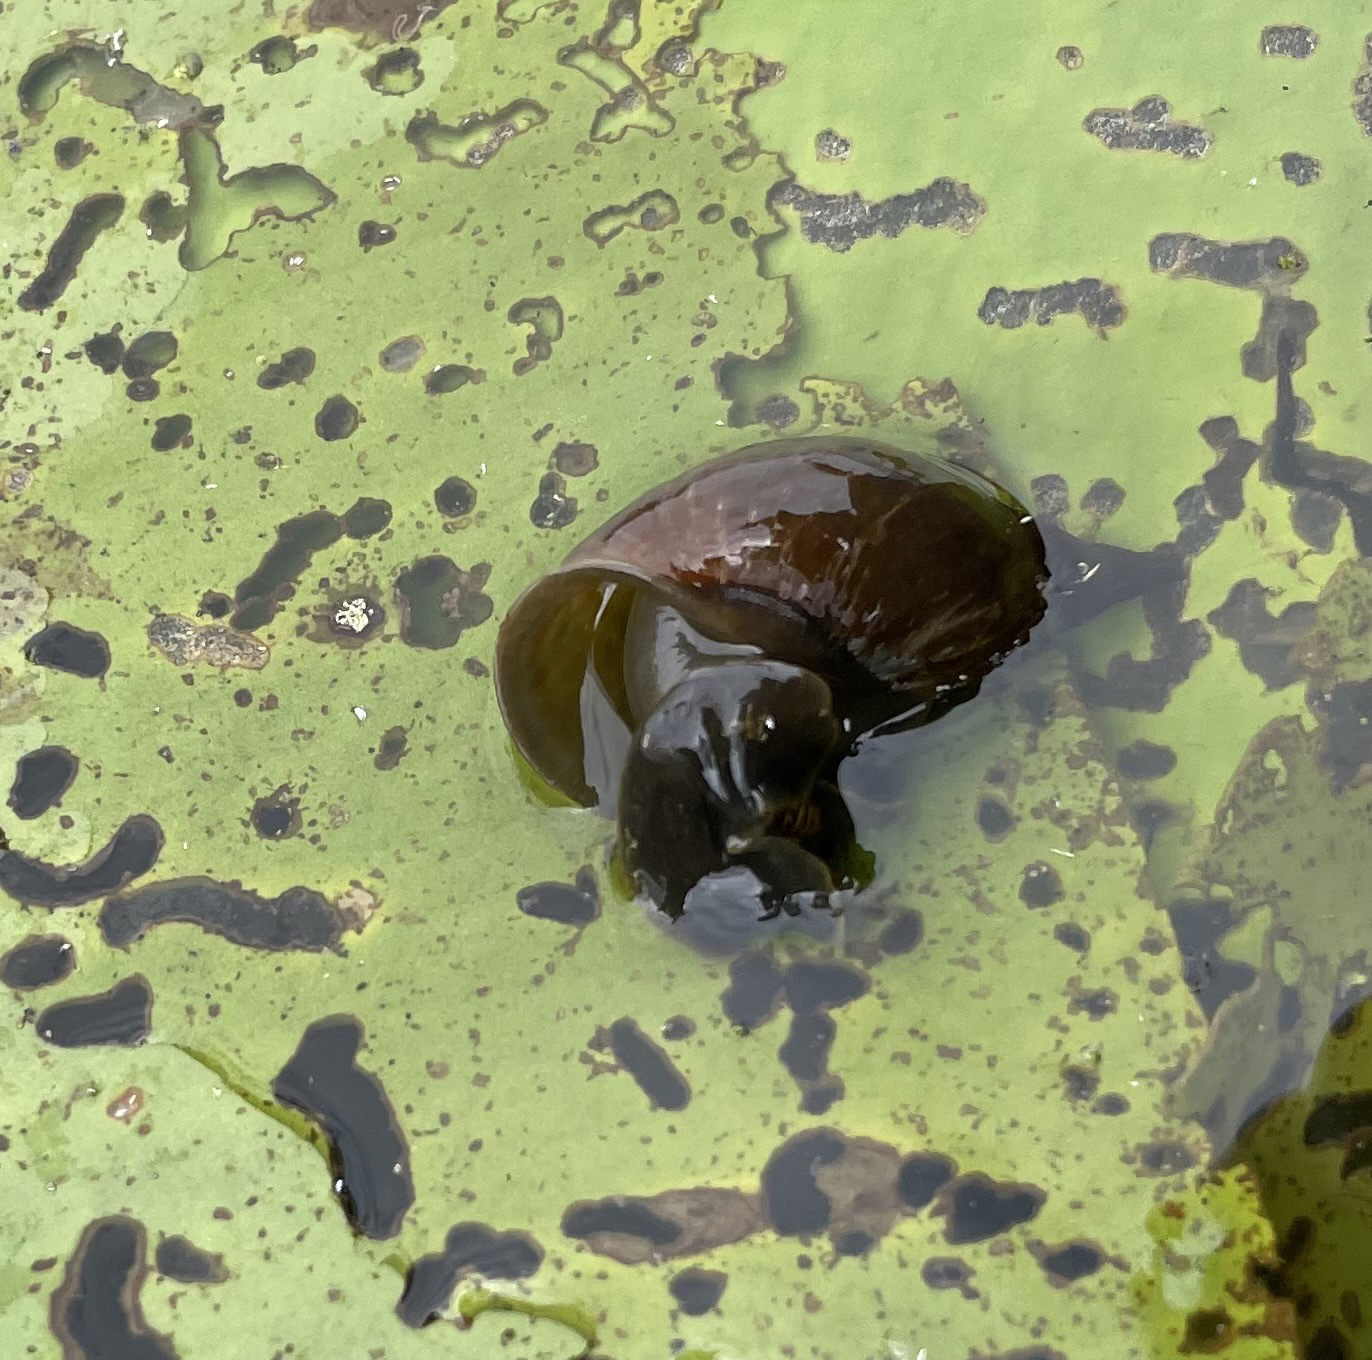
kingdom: Animalia
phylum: Mollusca
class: Gastropoda
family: Lymnaeidae
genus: Lymnaea
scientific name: Lymnaea stagnalis
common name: Great pond snail
